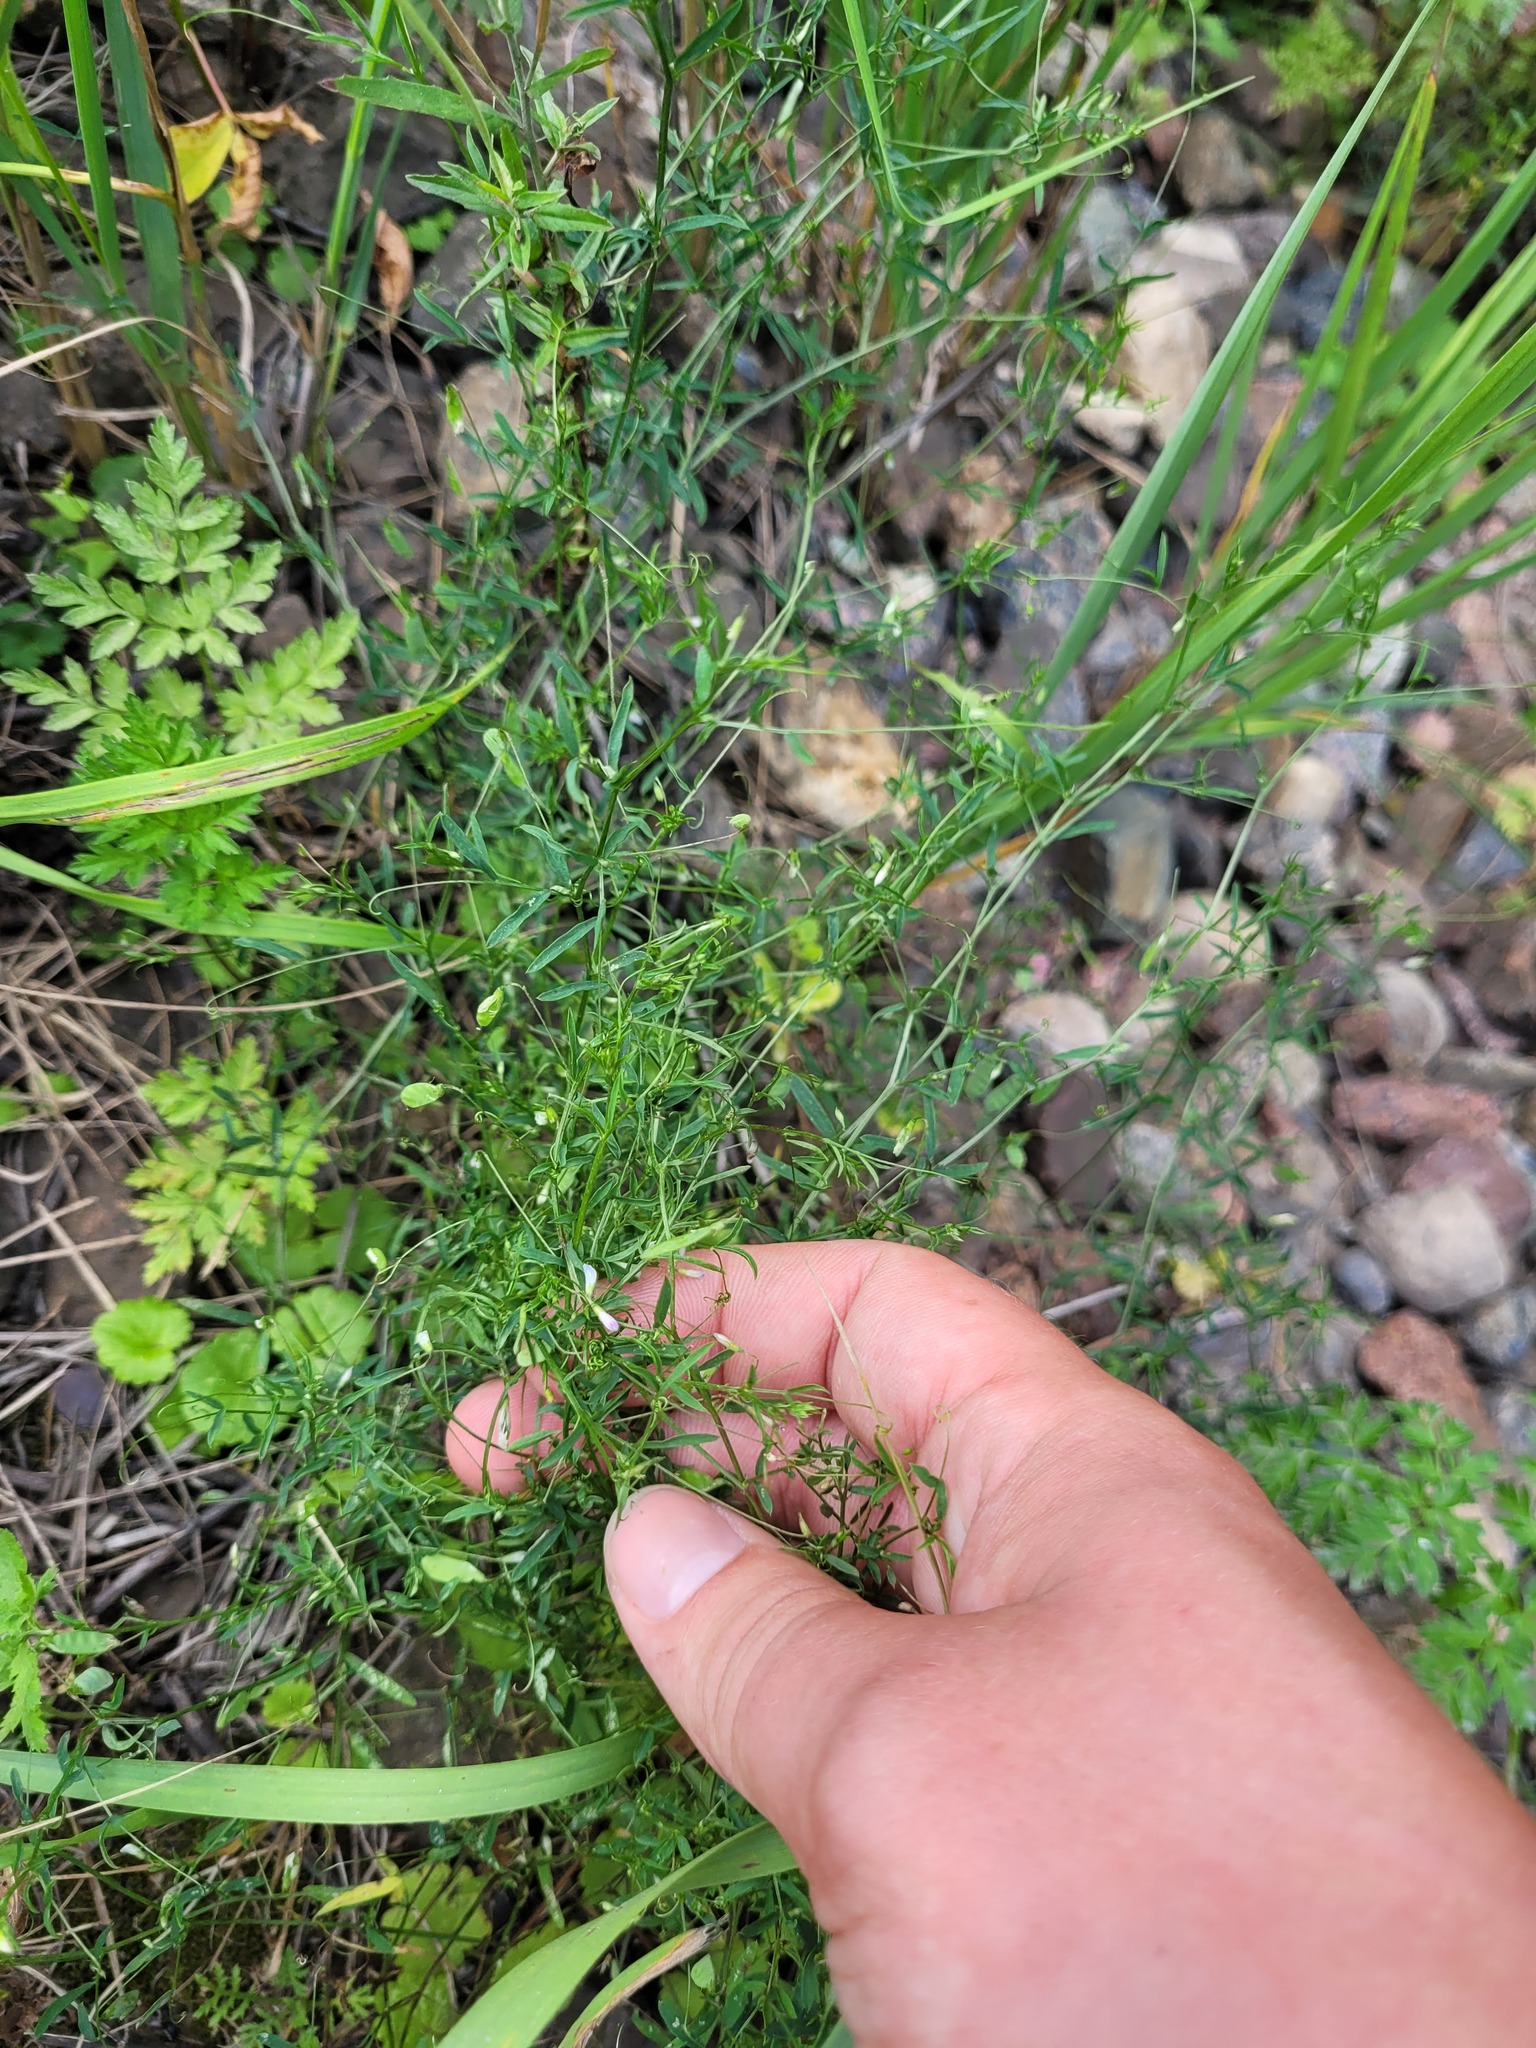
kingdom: Plantae
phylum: Tracheophyta
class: Magnoliopsida
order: Fabales
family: Fabaceae
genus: Vicia
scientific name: Vicia tetrasperma
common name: Smooth tare
